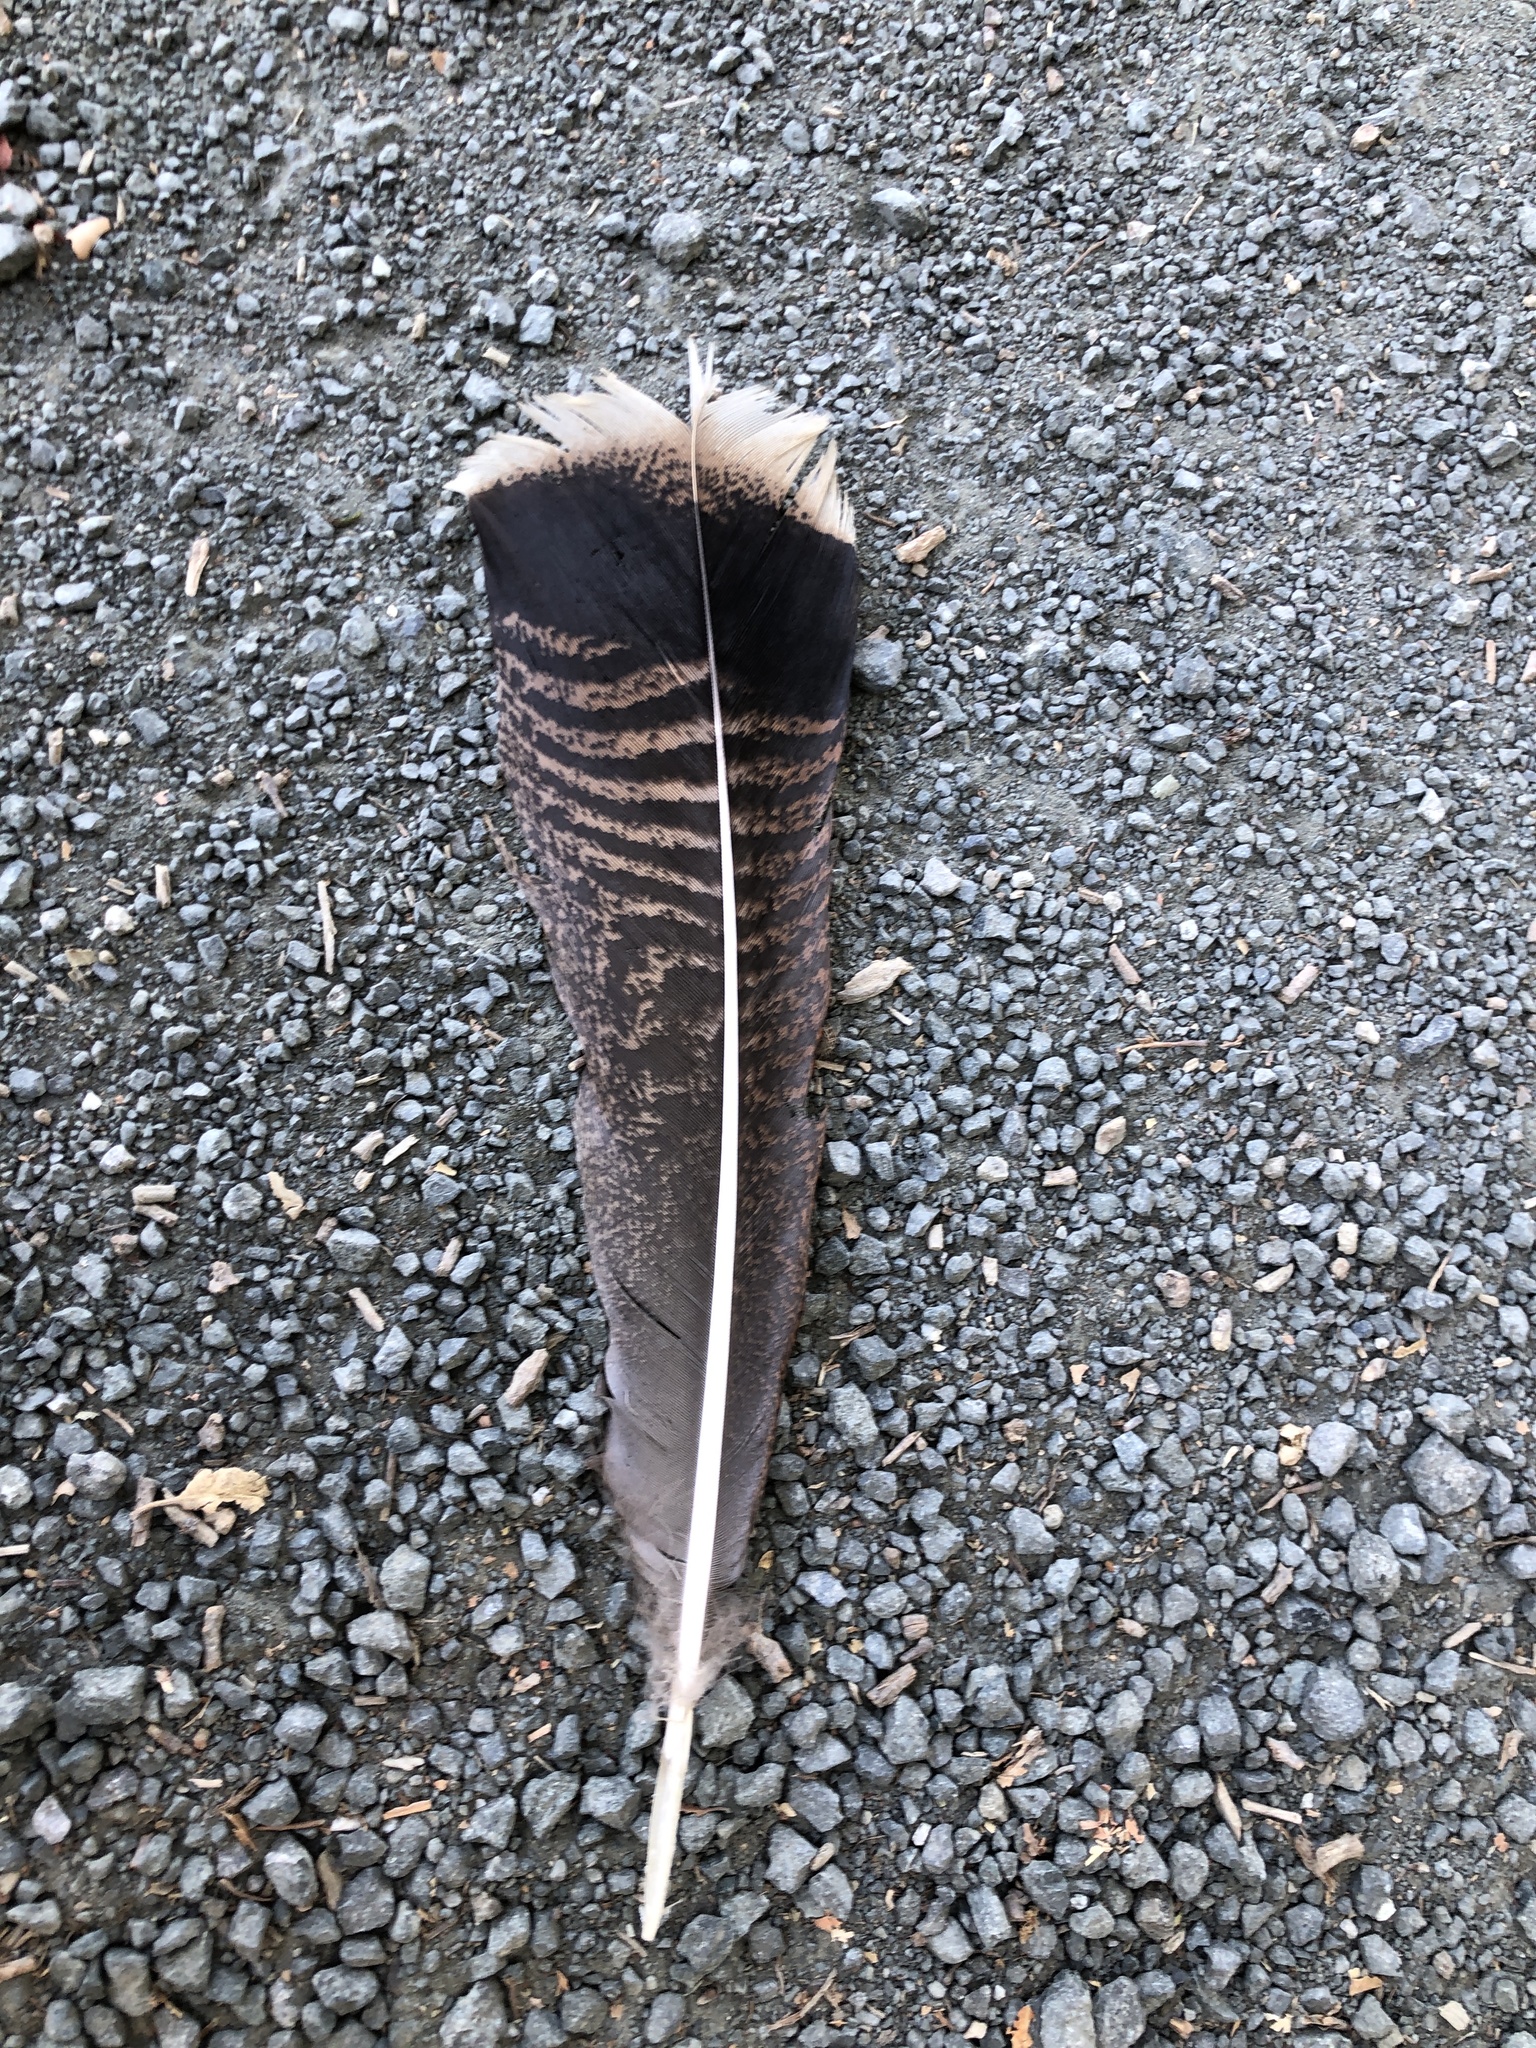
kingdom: Animalia
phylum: Chordata
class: Aves
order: Galliformes
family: Phasianidae
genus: Meleagris
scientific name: Meleagris gallopavo
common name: Wild turkey
